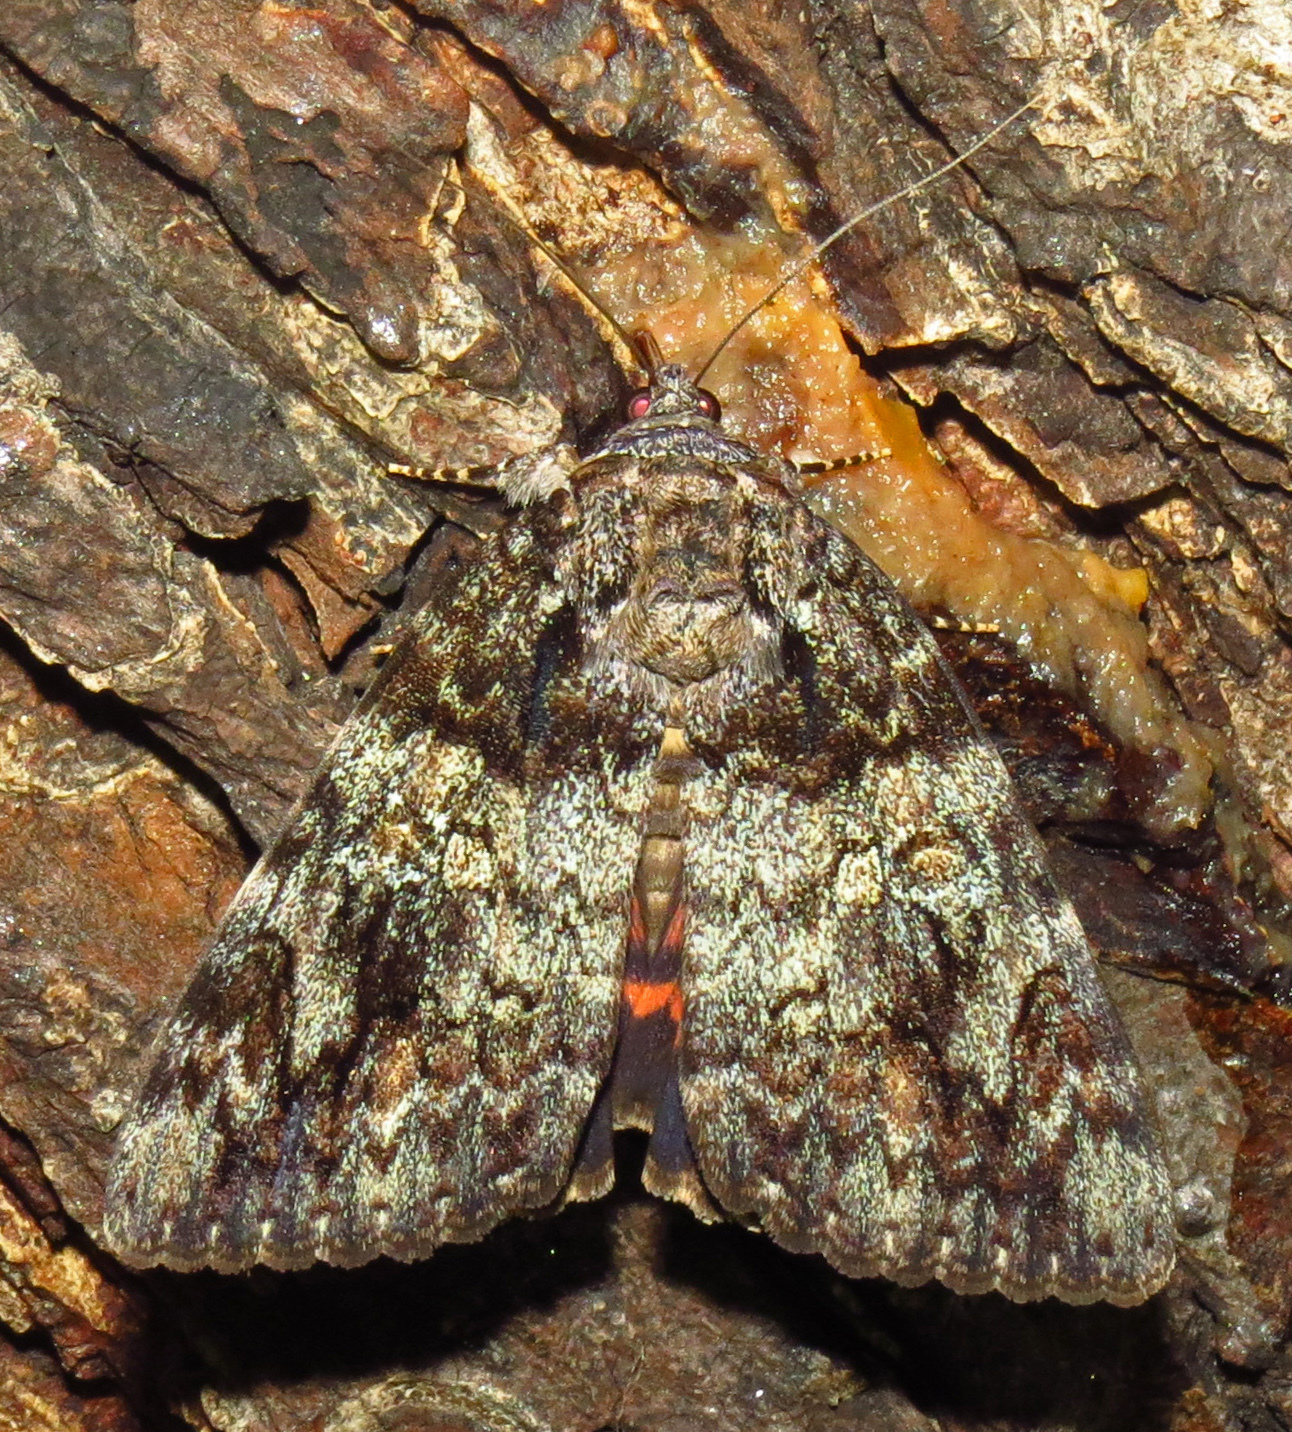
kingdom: Animalia
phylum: Arthropoda
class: Insecta
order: Lepidoptera
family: Erebidae
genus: Catocala
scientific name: Catocala ilia
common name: Ilia underwing
